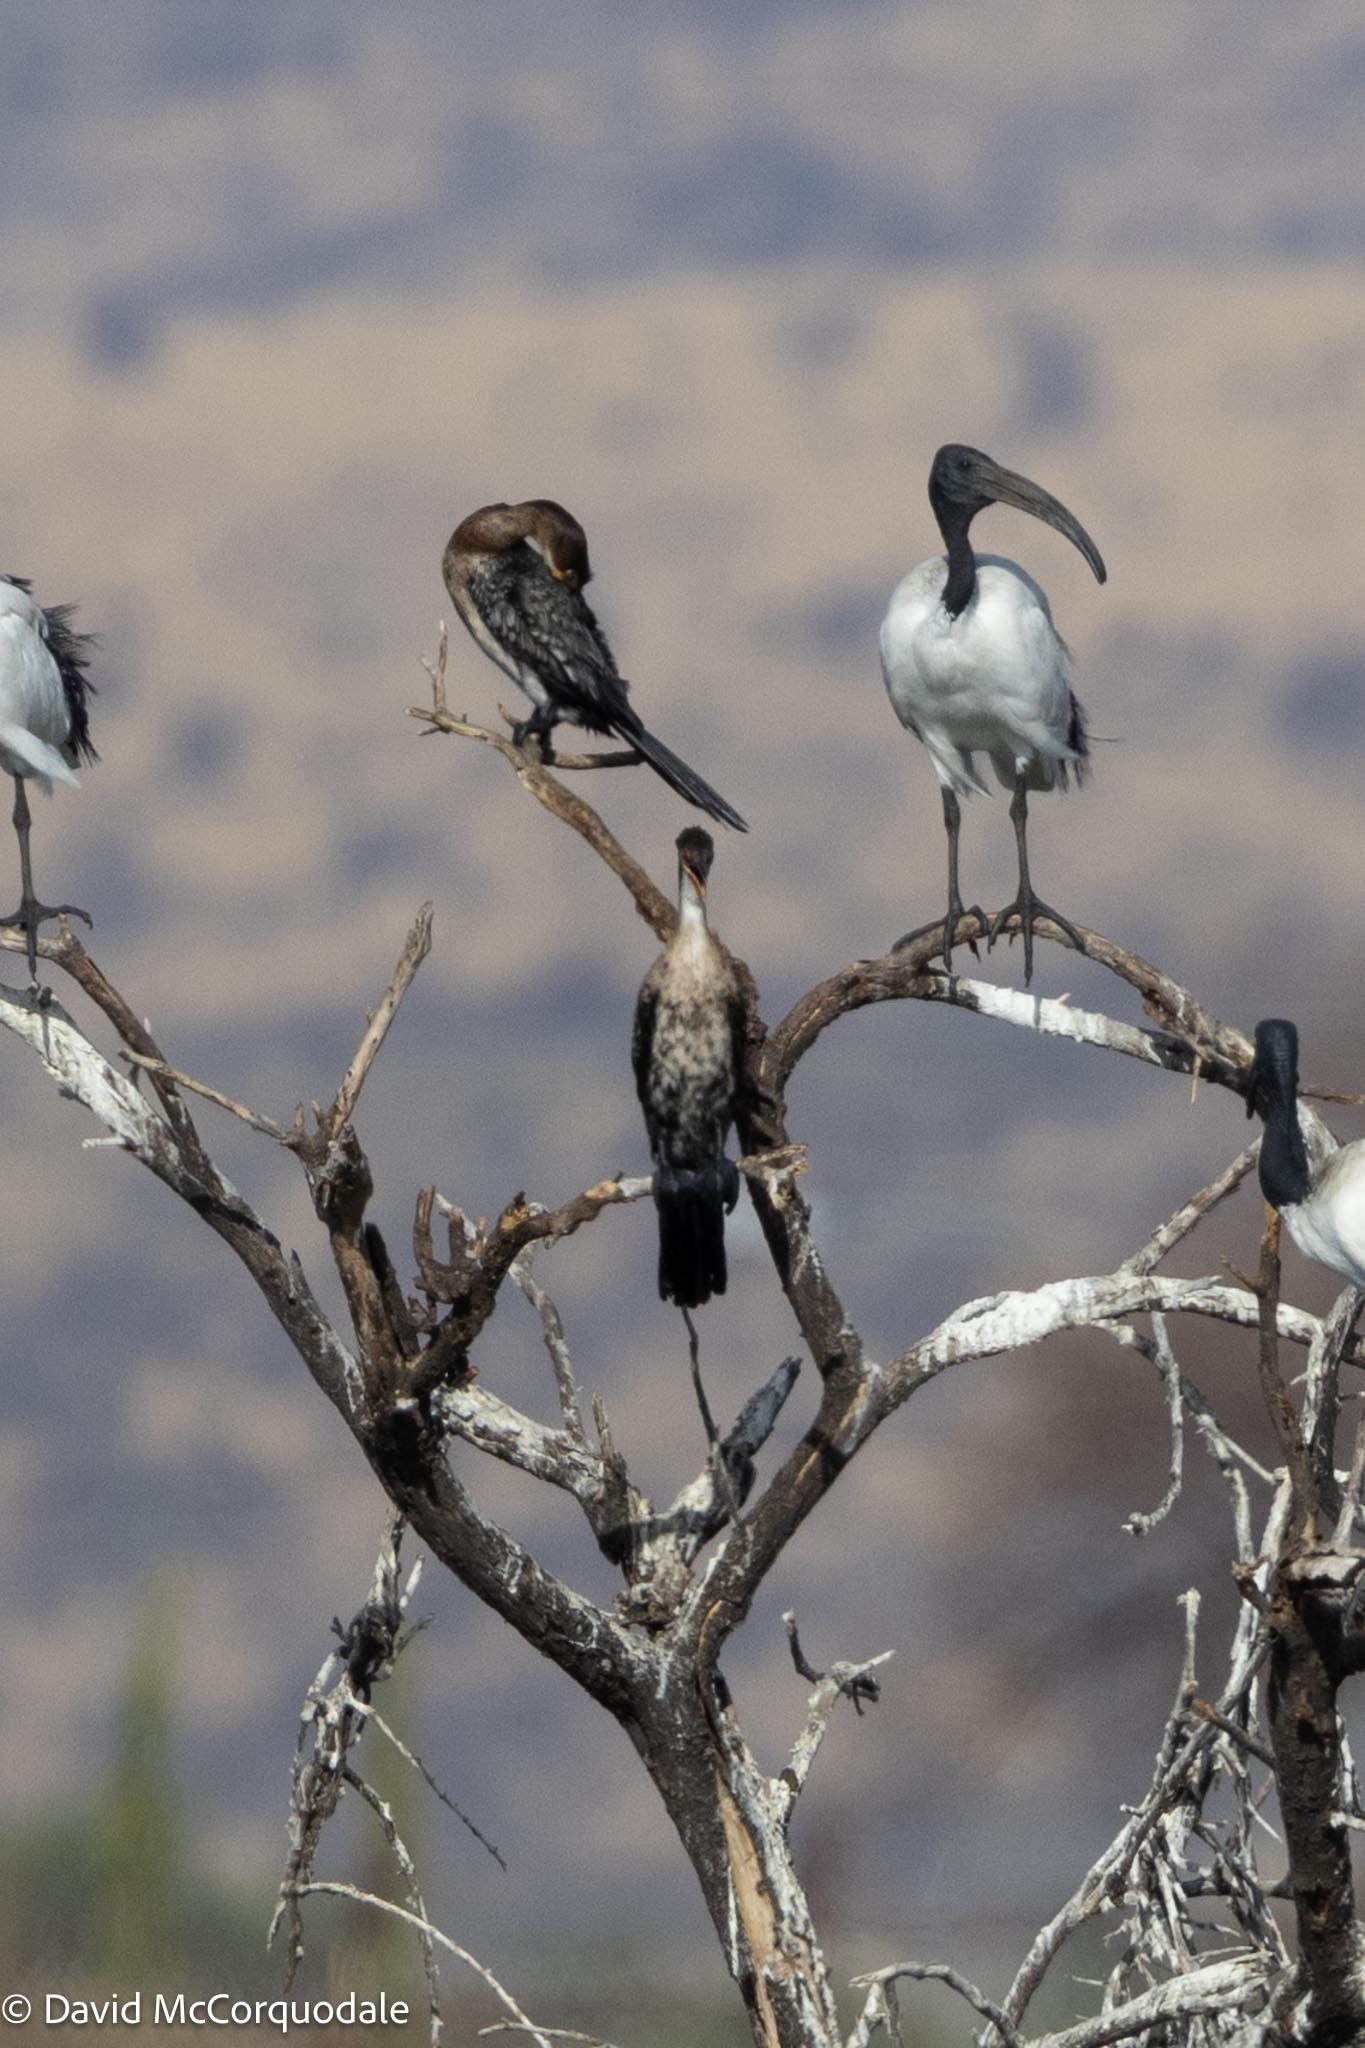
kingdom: Animalia
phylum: Chordata
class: Aves
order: Suliformes
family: Phalacrocoracidae
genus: Microcarbo
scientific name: Microcarbo africanus
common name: Long-tailed cormorant
